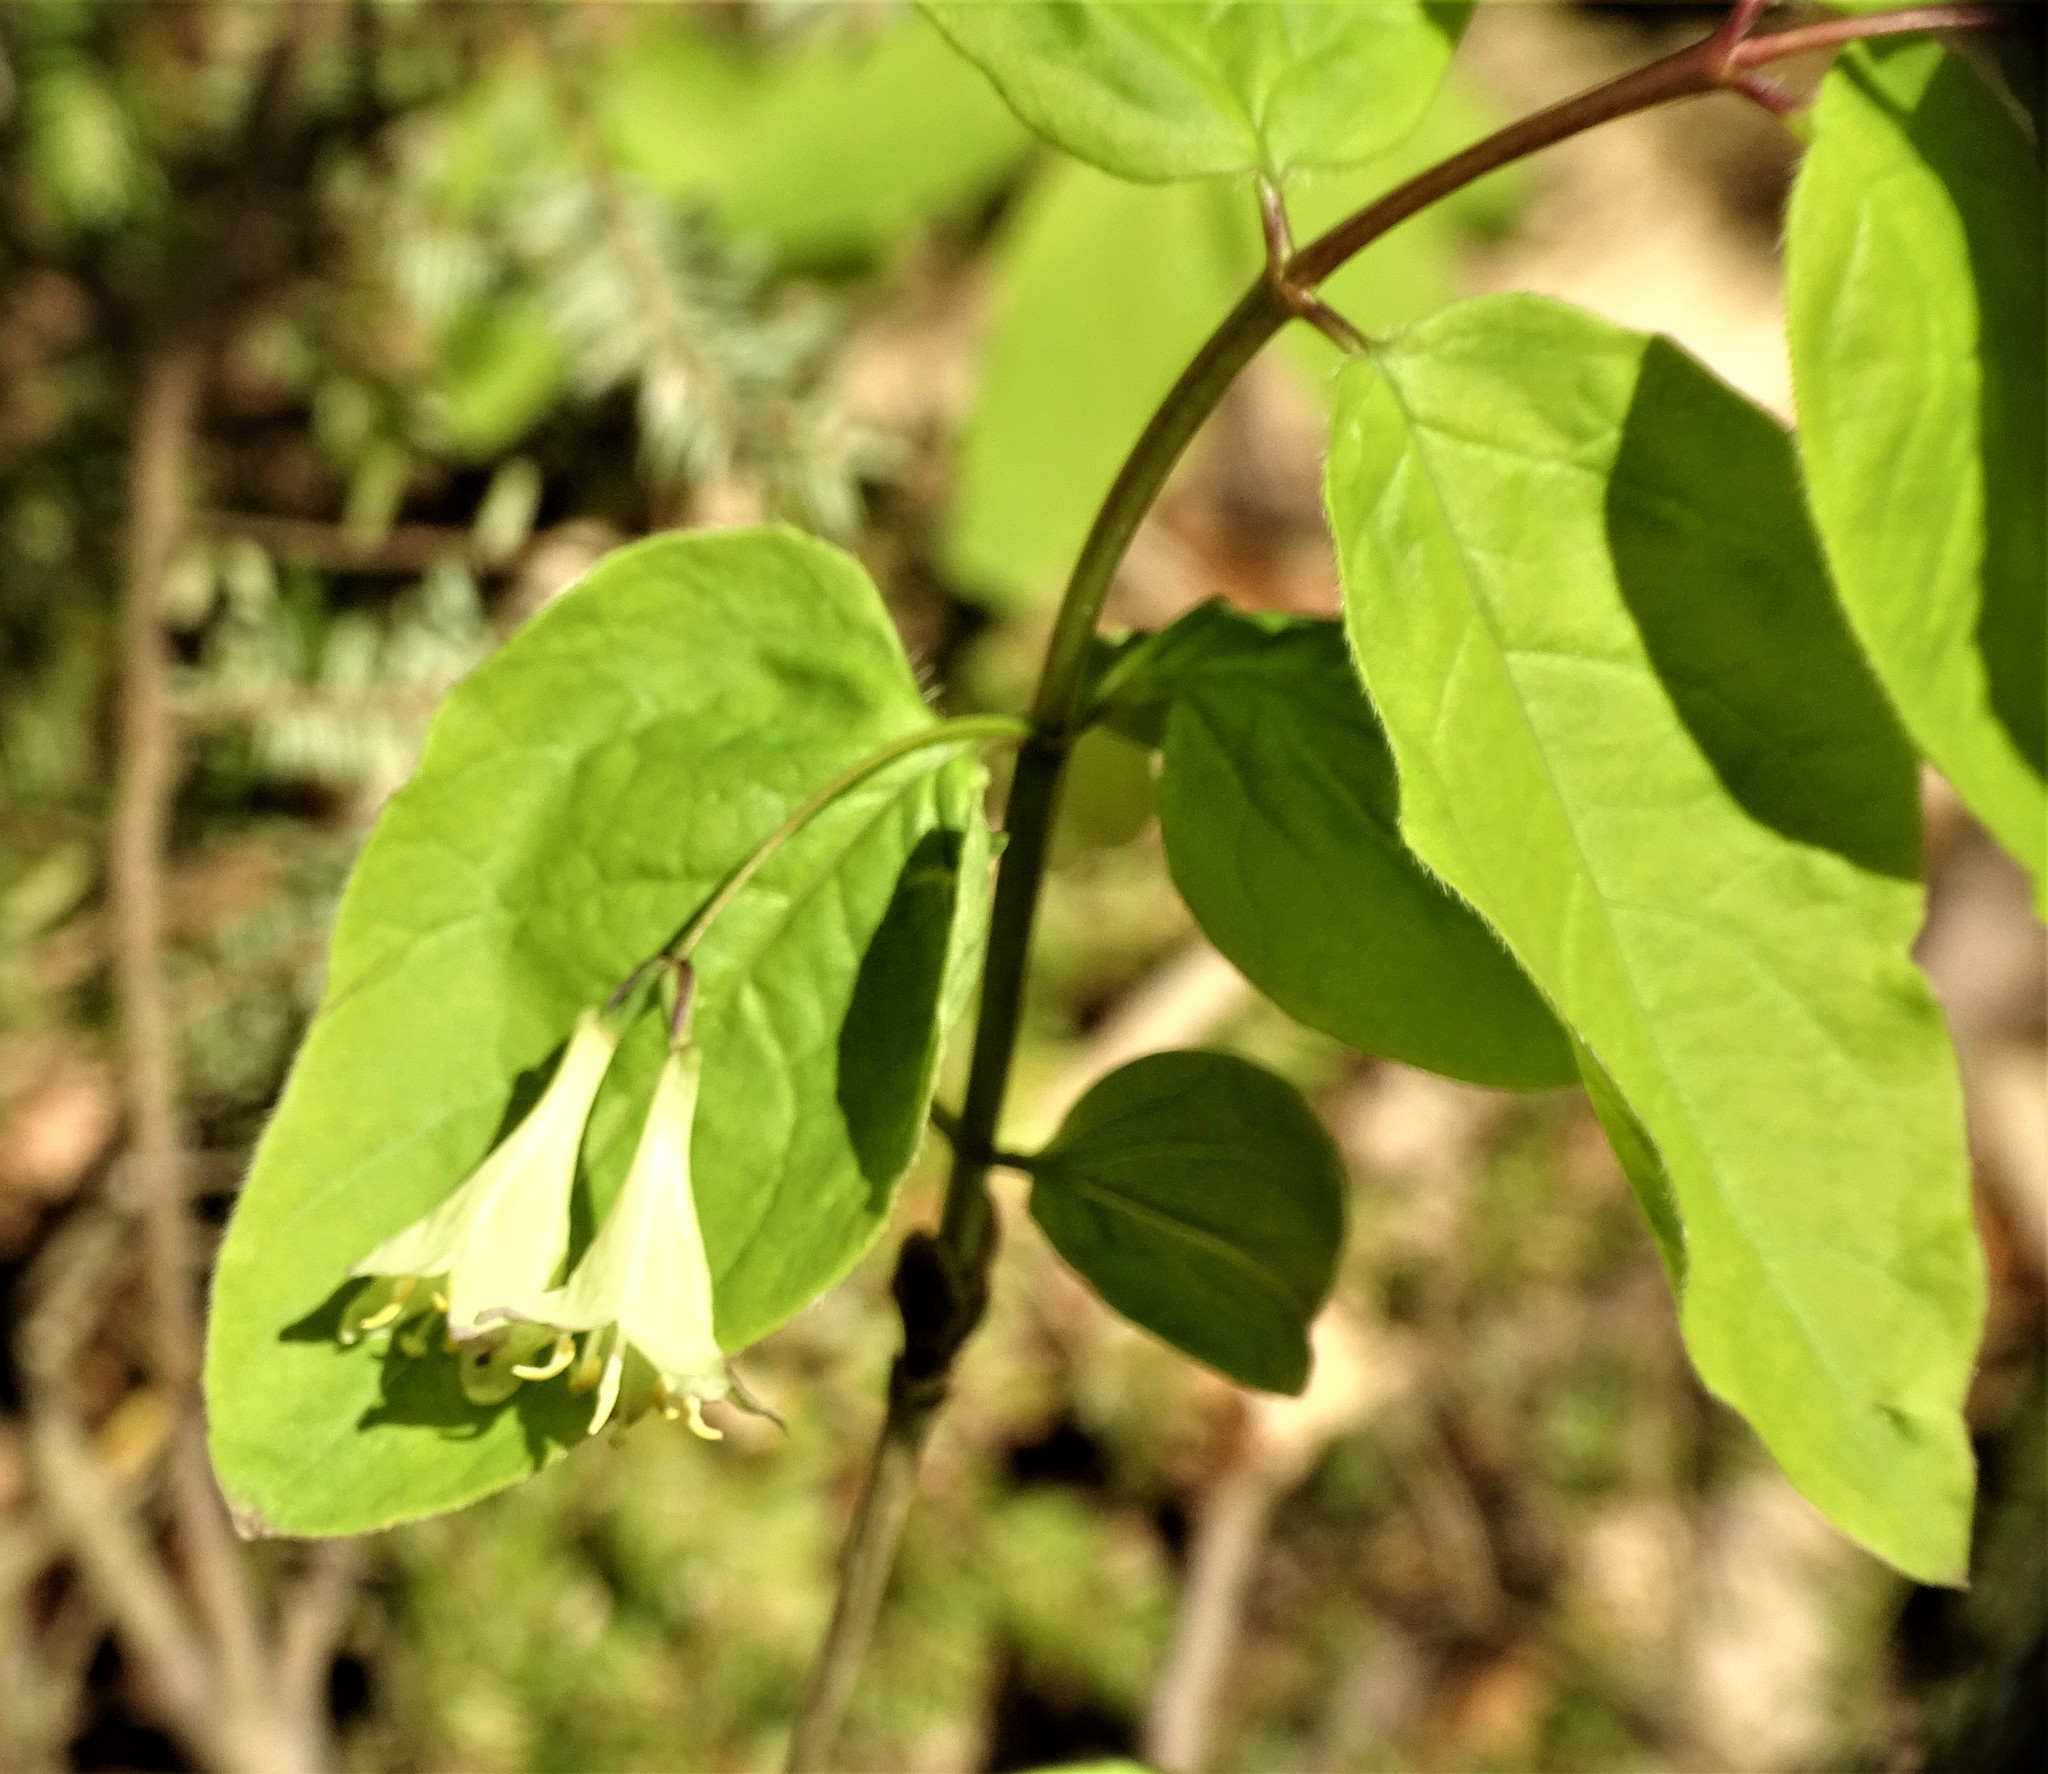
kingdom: Plantae
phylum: Tracheophyta
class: Magnoliopsida
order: Dipsacales
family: Caprifoliaceae
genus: Lonicera
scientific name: Lonicera canadensis
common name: American fly-honeysuckle
